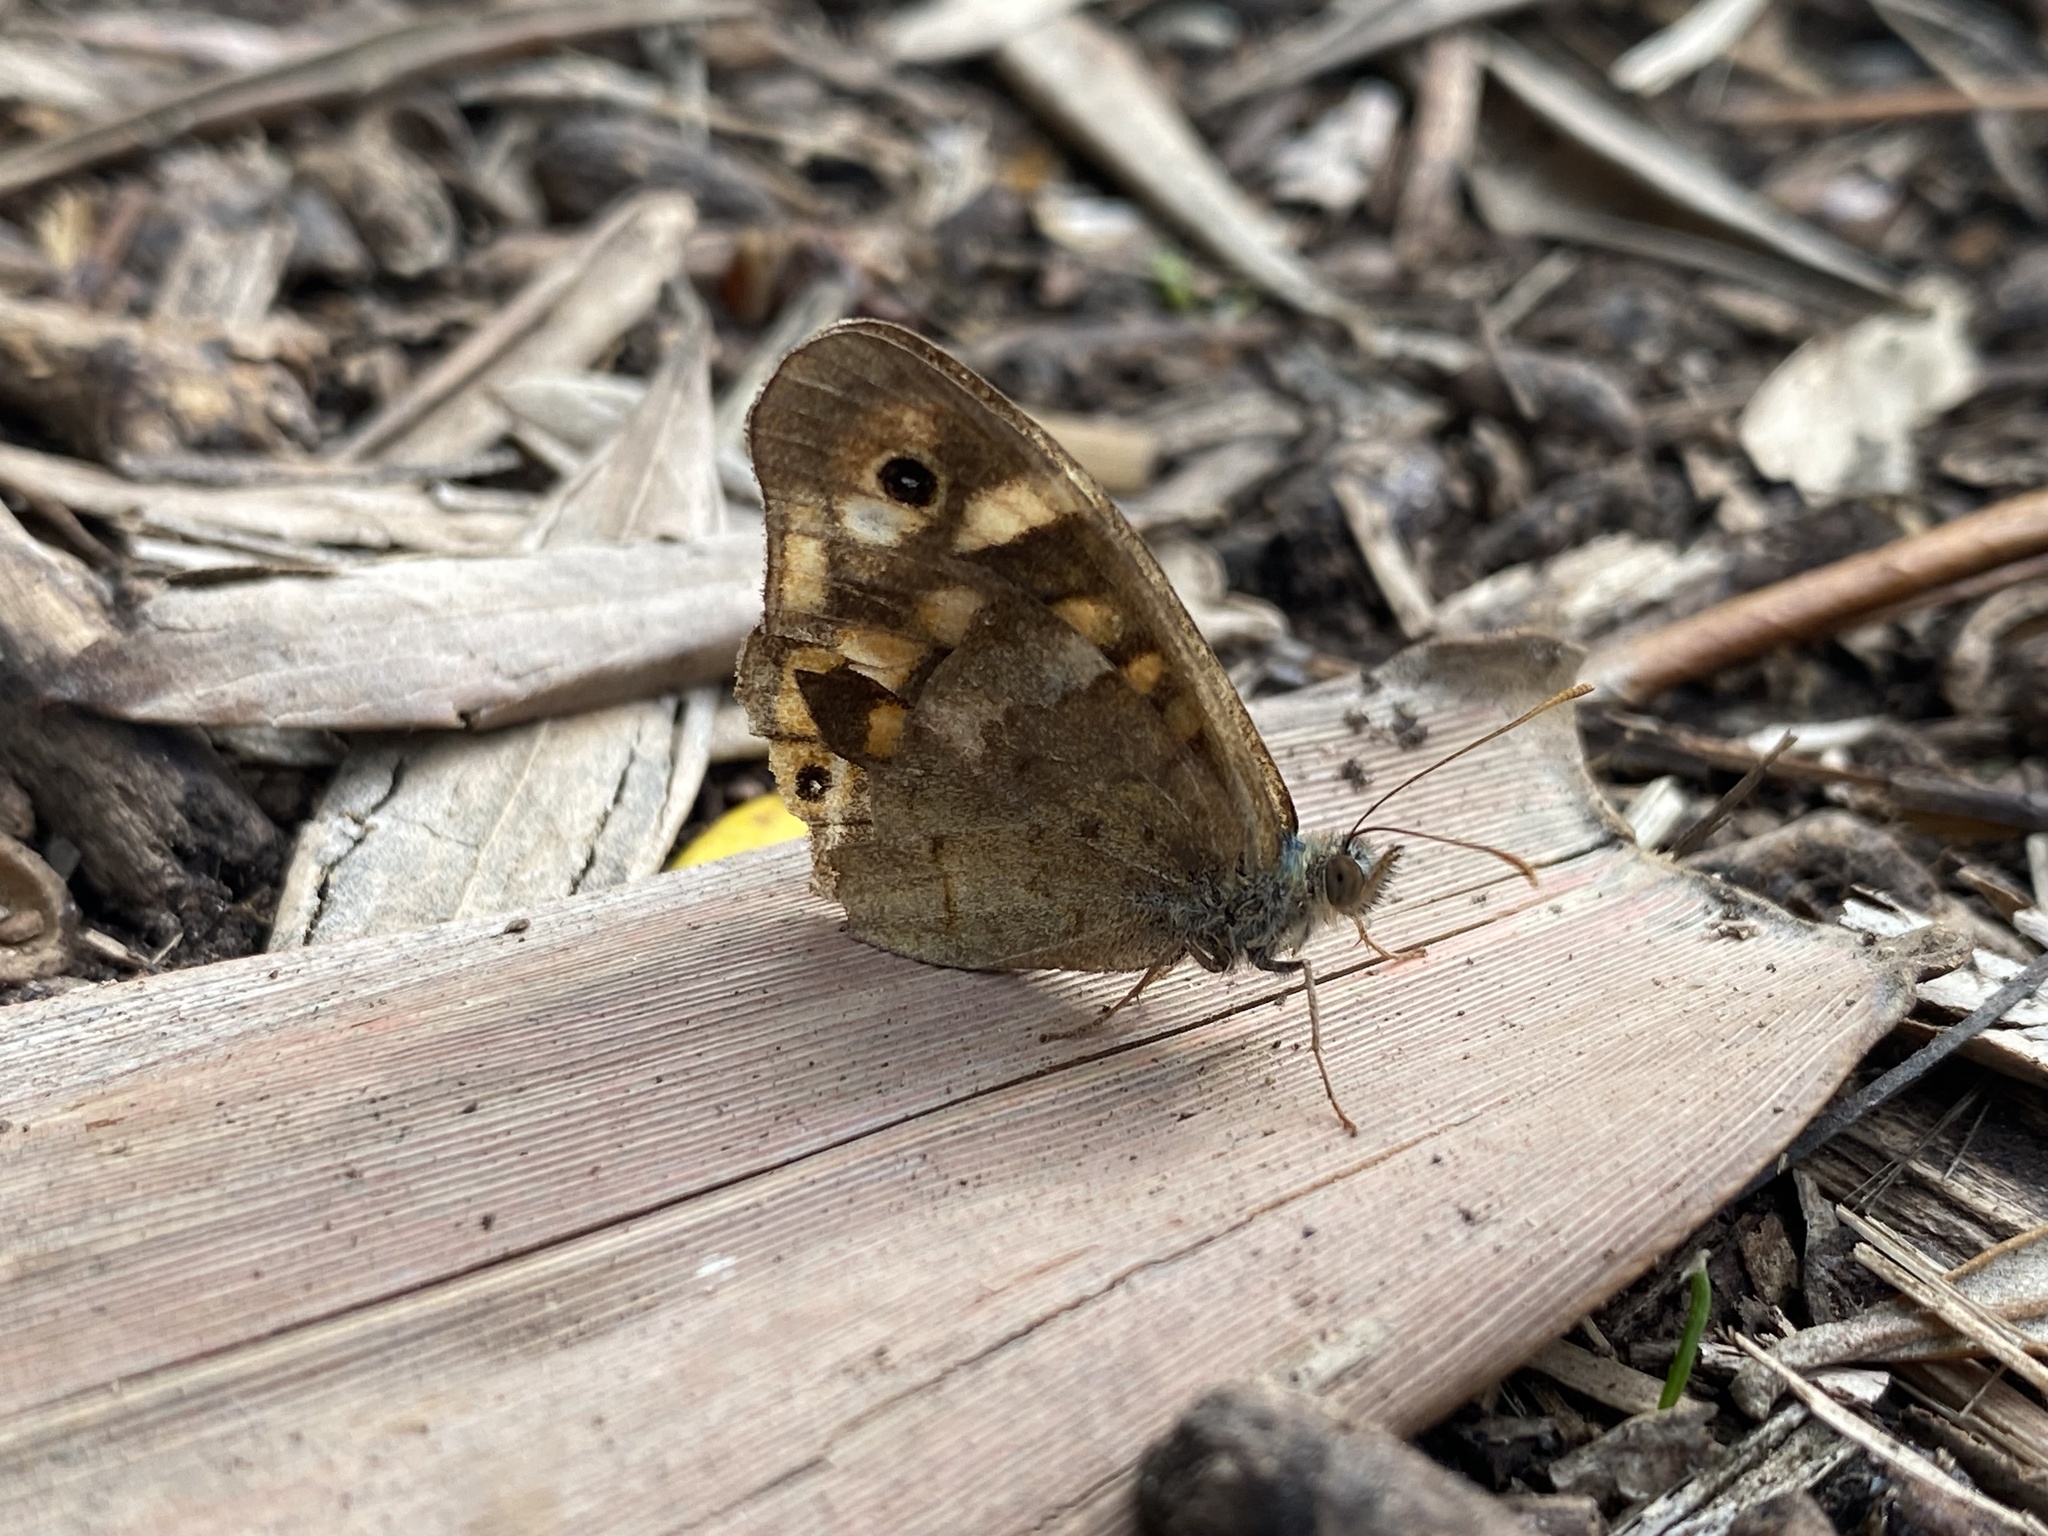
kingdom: Animalia
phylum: Arthropoda
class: Insecta
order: Lepidoptera
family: Nymphalidae
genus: Pararge
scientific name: Pararge aegeria
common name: Speckled wood
